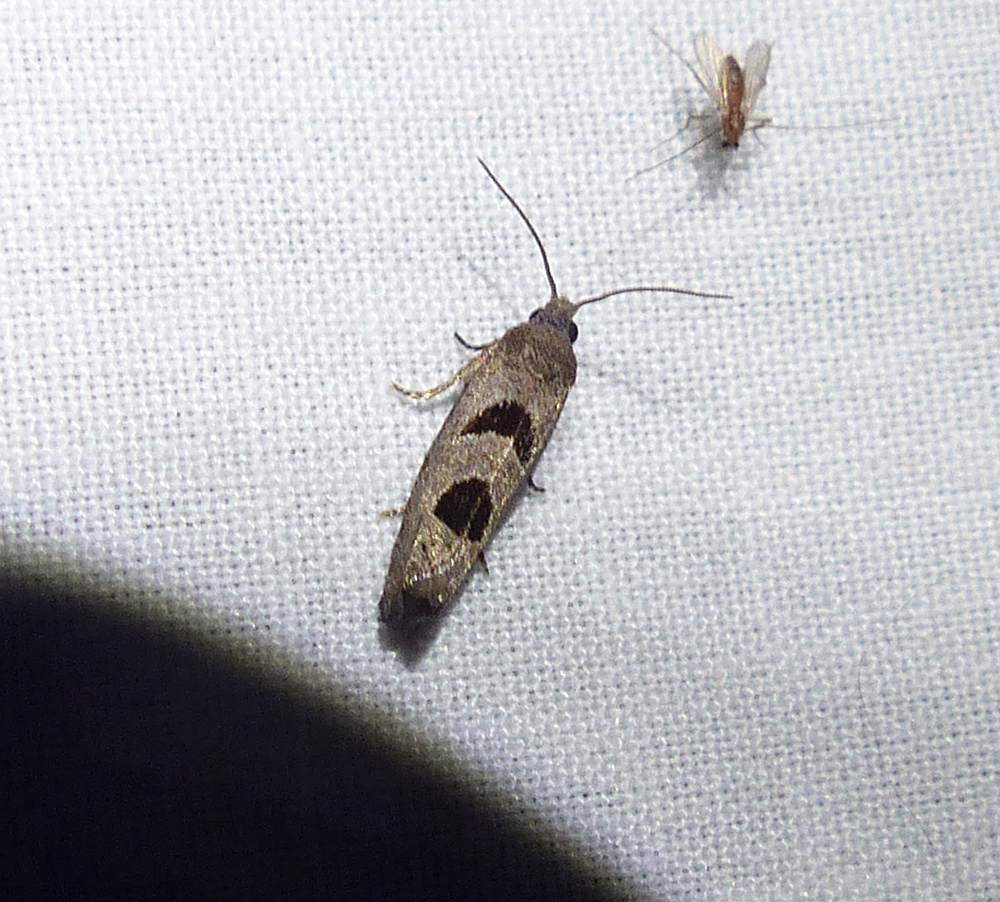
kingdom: Animalia
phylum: Arthropoda
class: Insecta
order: Lepidoptera
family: Tortricidae
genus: Eucosma
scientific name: Eucosma tomonana
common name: Aster-head eucosma moth
